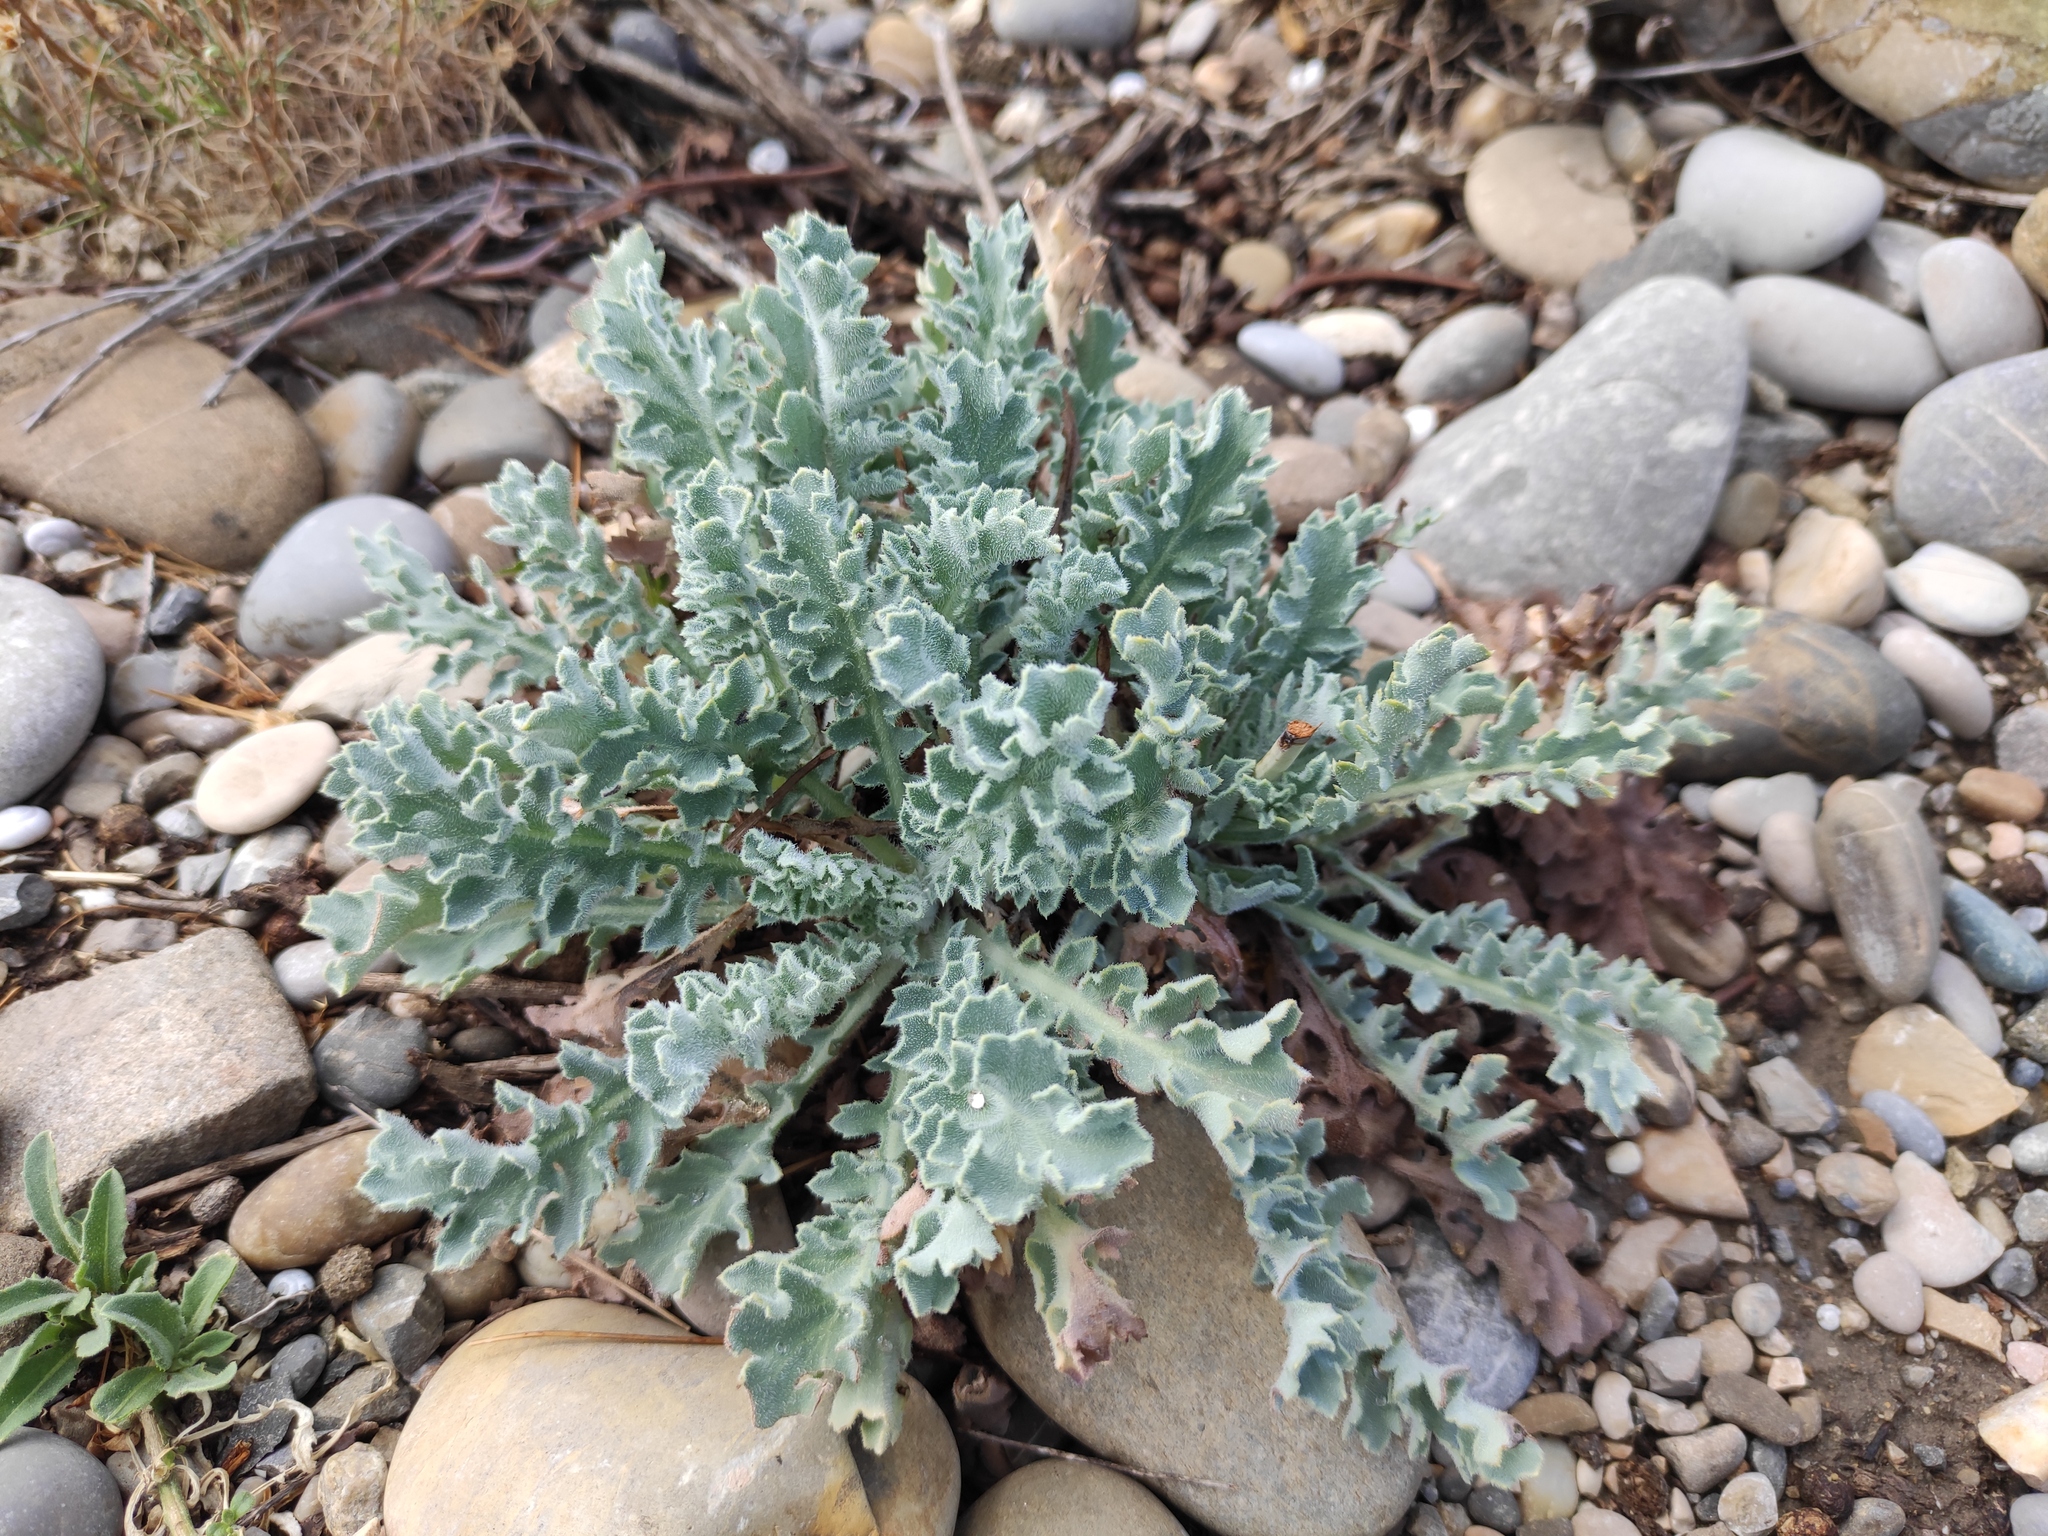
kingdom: Plantae
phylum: Tracheophyta
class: Magnoliopsida
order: Ranunculales
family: Papaveraceae
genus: Glaucium
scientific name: Glaucium flavum
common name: Yellow horned-poppy
